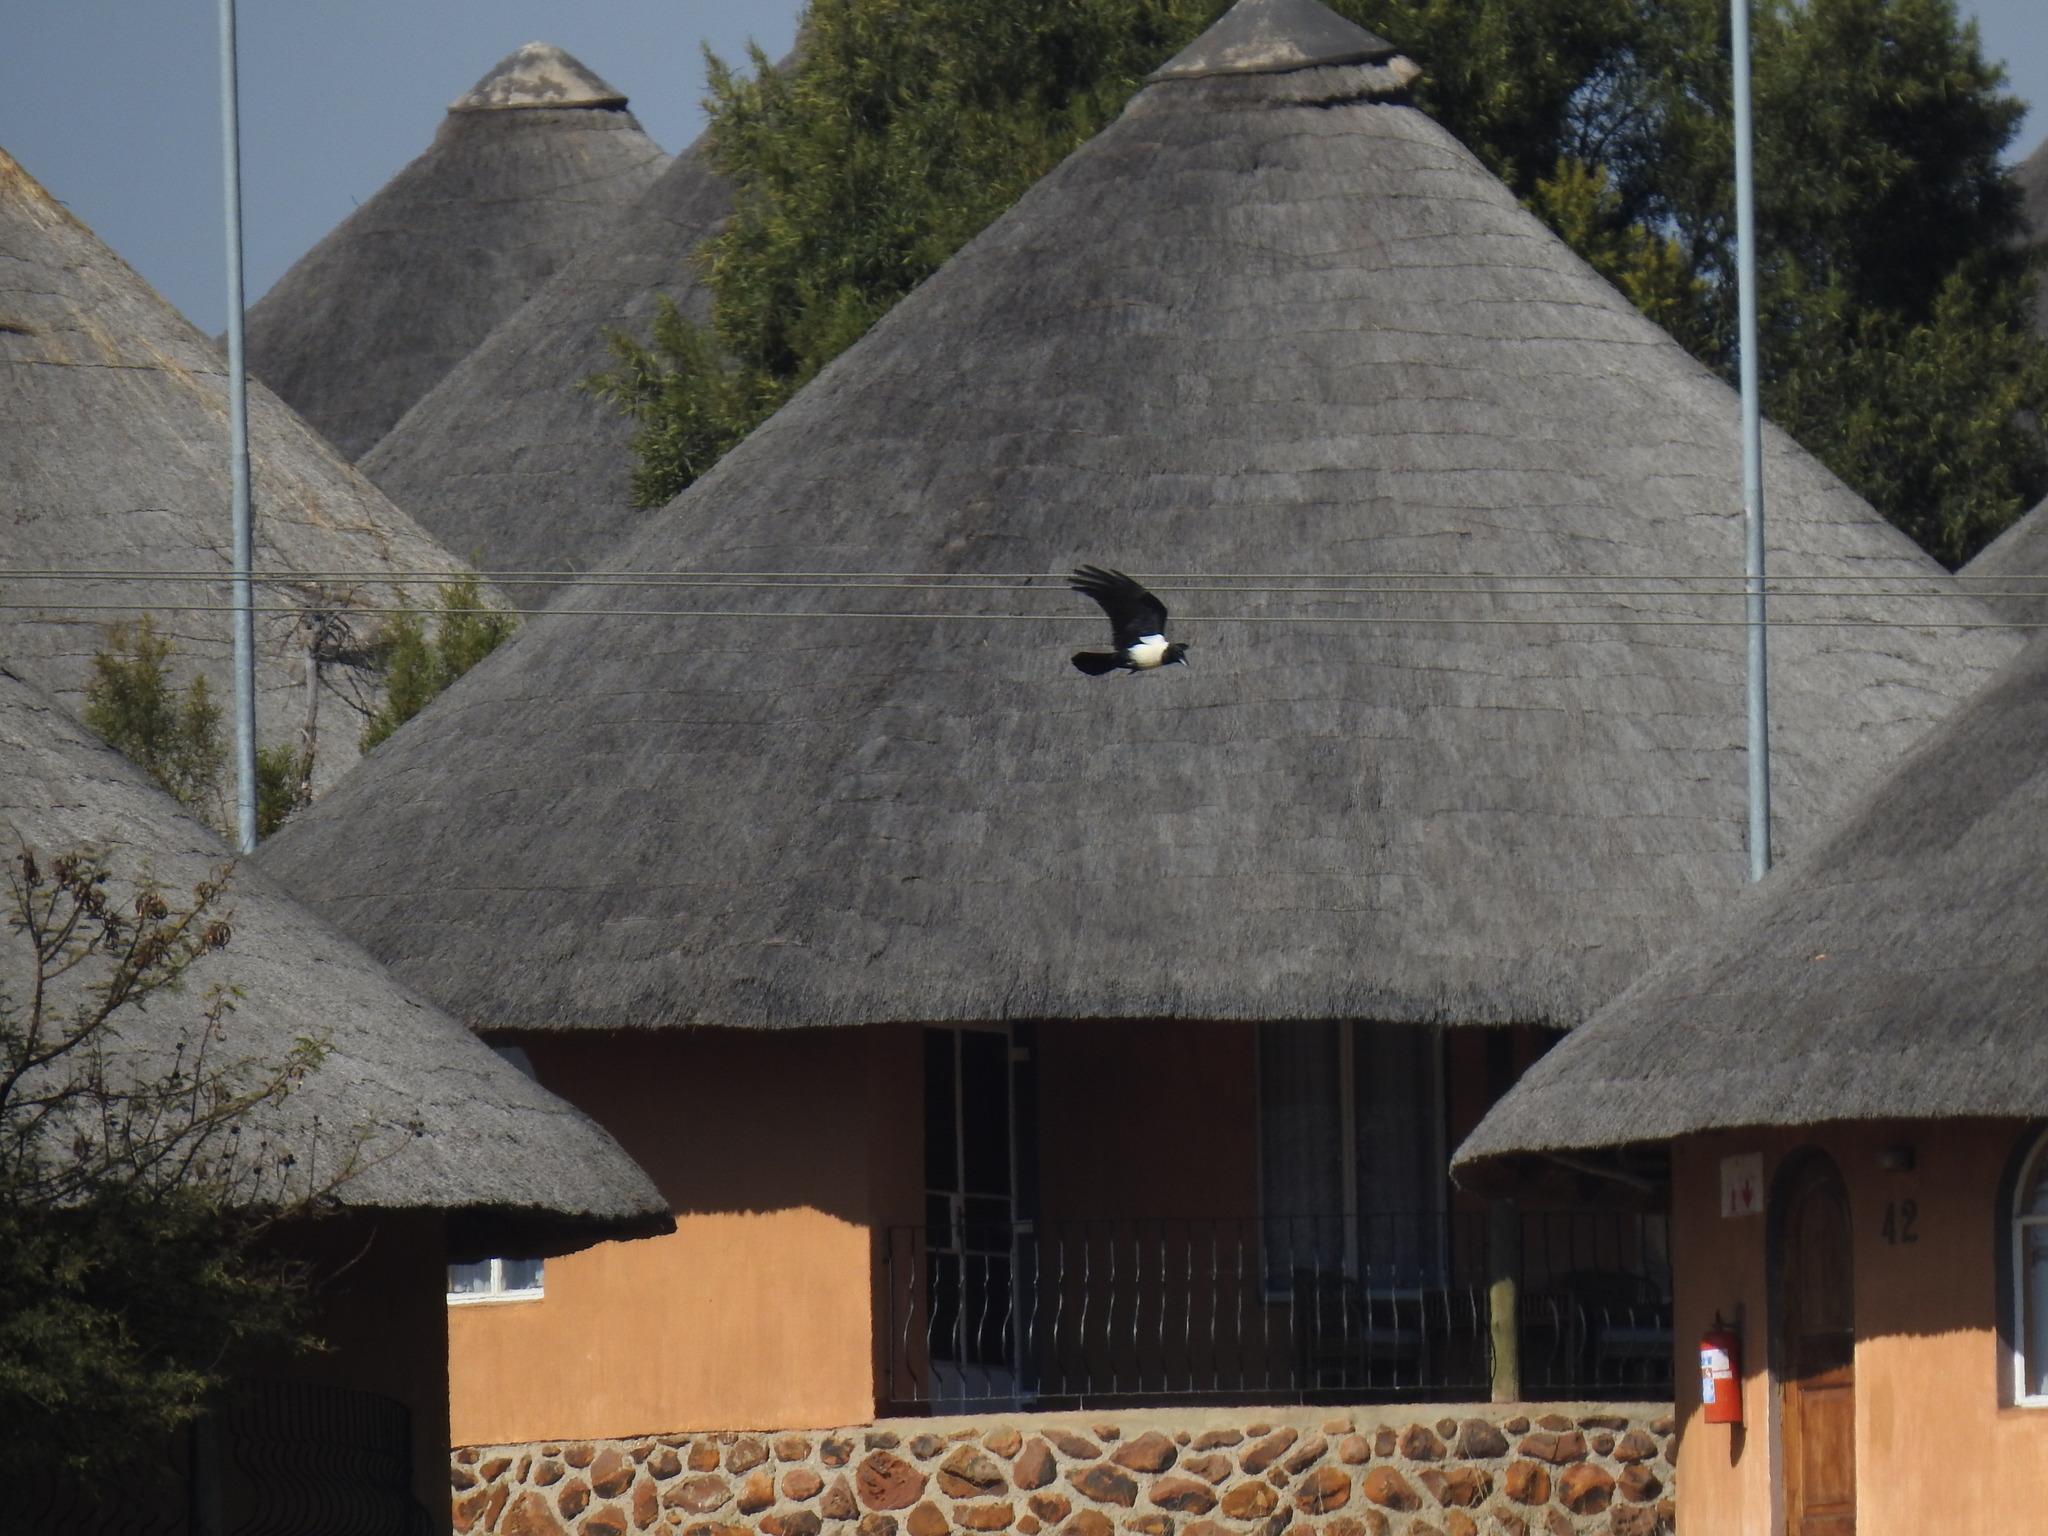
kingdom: Animalia
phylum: Chordata
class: Aves
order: Passeriformes
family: Corvidae
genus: Corvus
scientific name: Corvus albus
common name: Pied crow
